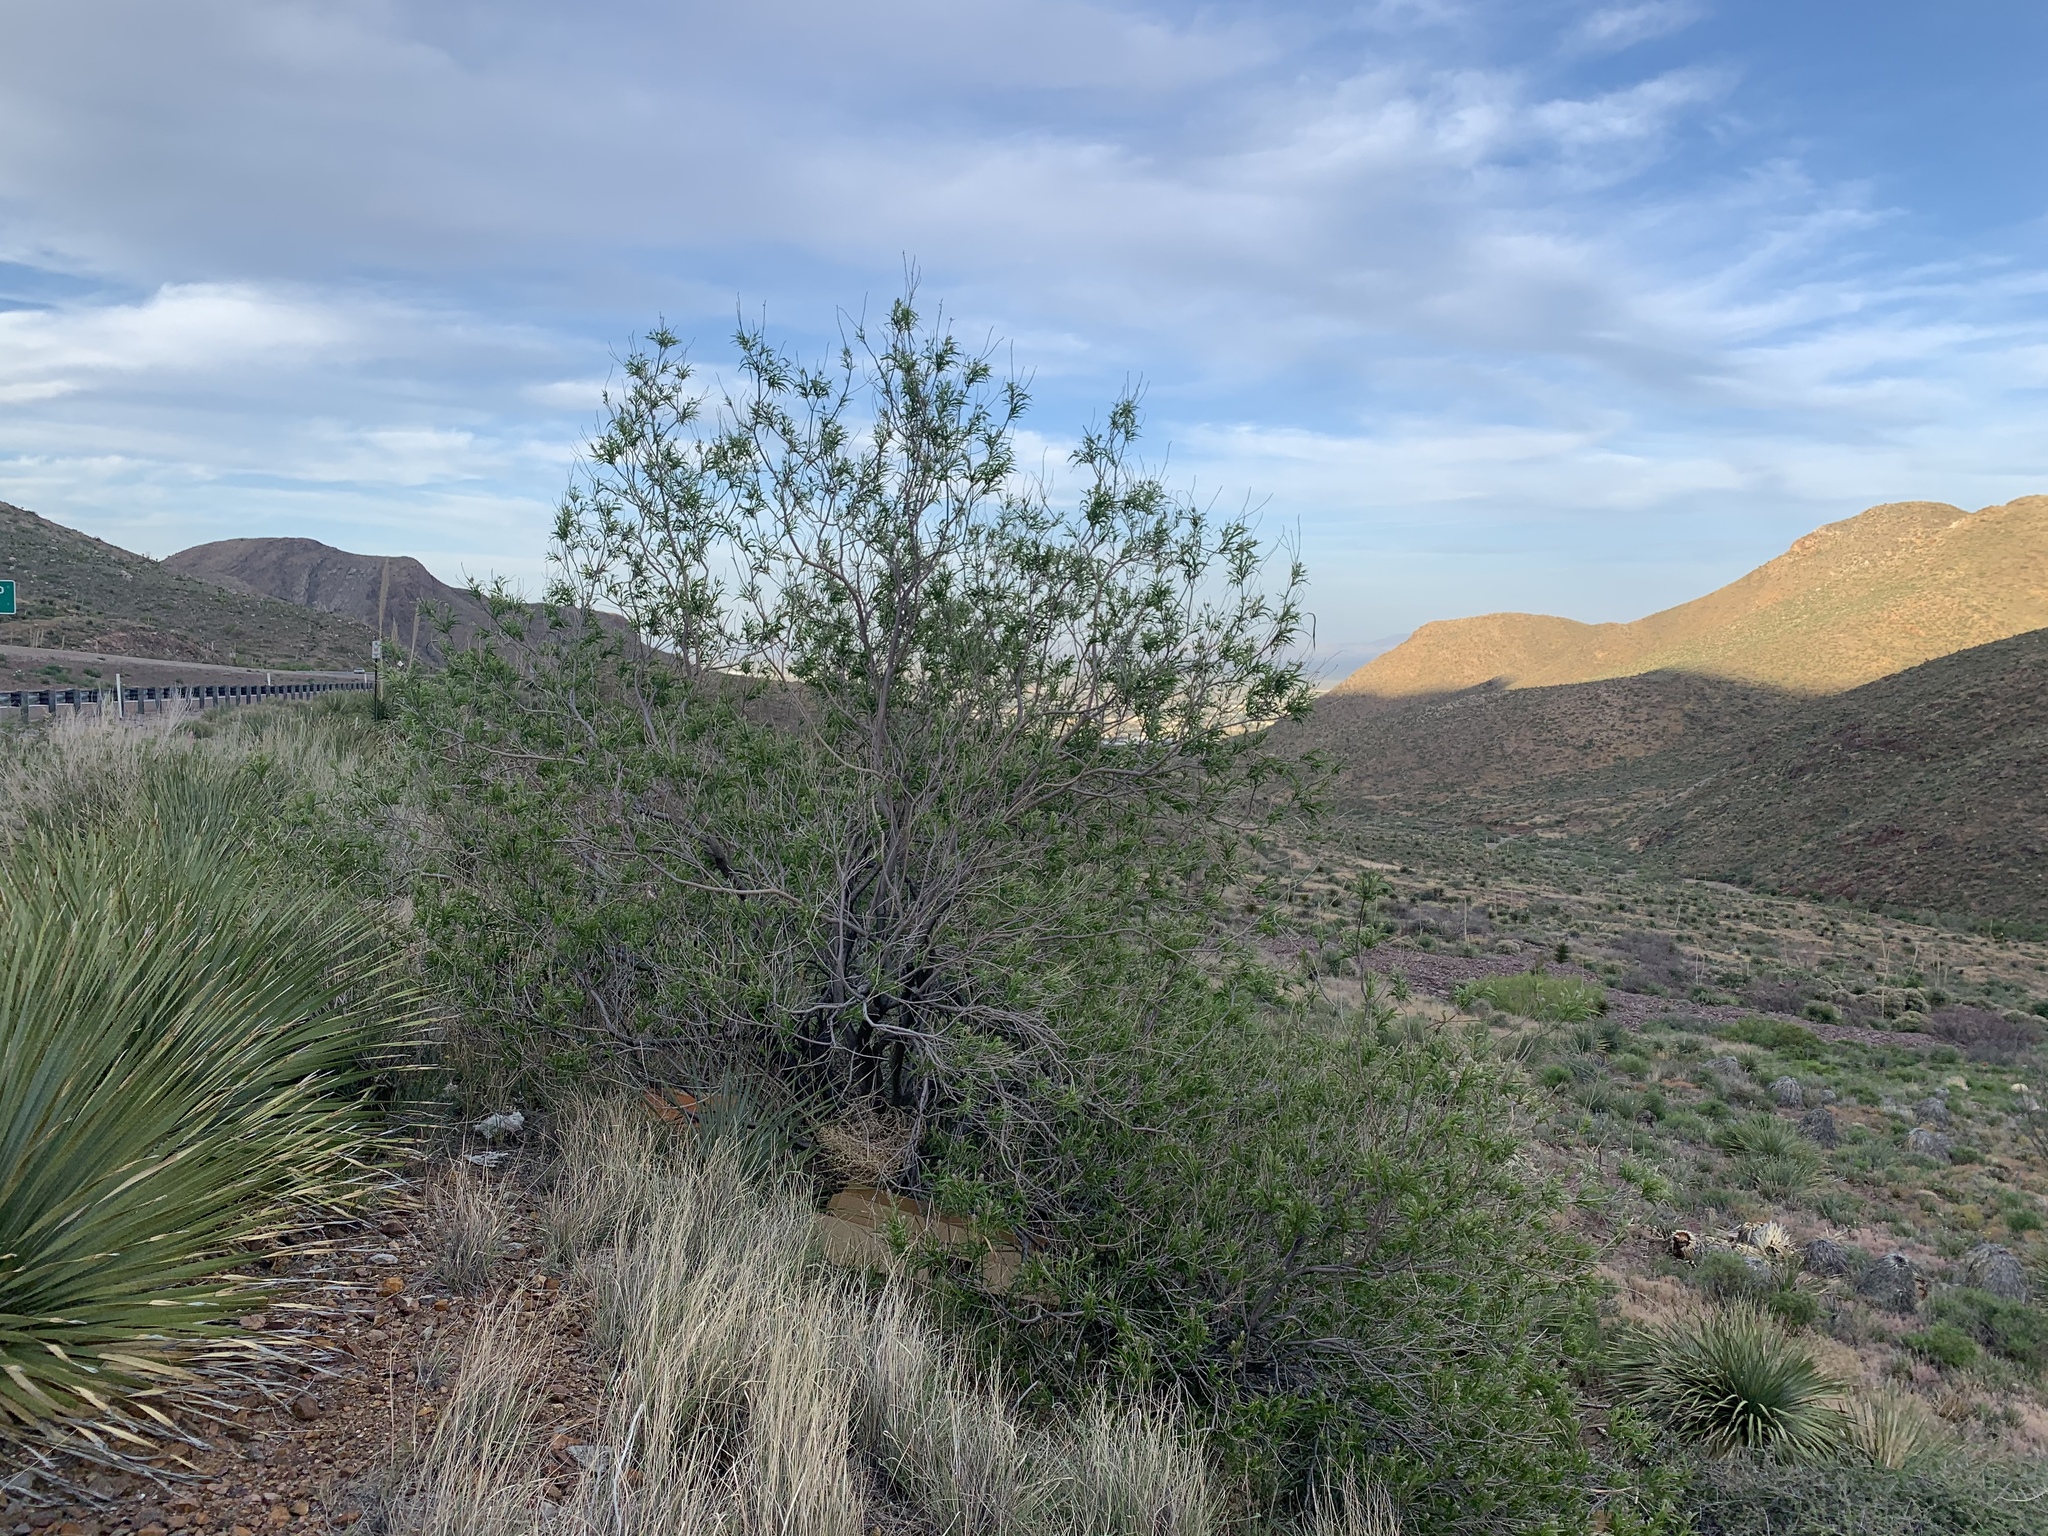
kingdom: Plantae
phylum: Tracheophyta
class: Magnoliopsida
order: Lamiales
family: Bignoniaceae
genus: Chilopsis
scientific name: Chilopsis linearis
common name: Desert-willow
